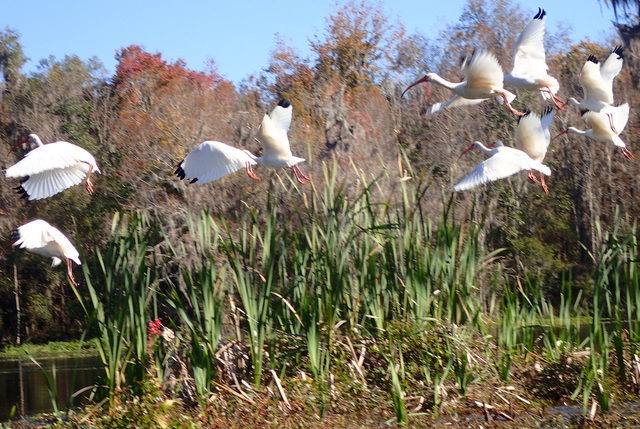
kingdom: Animalia
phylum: Chordata
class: Aves
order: Pelecaniformes
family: Threskiornithidae
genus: Eudocimus
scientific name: Eudocimus albus
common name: White ibis
